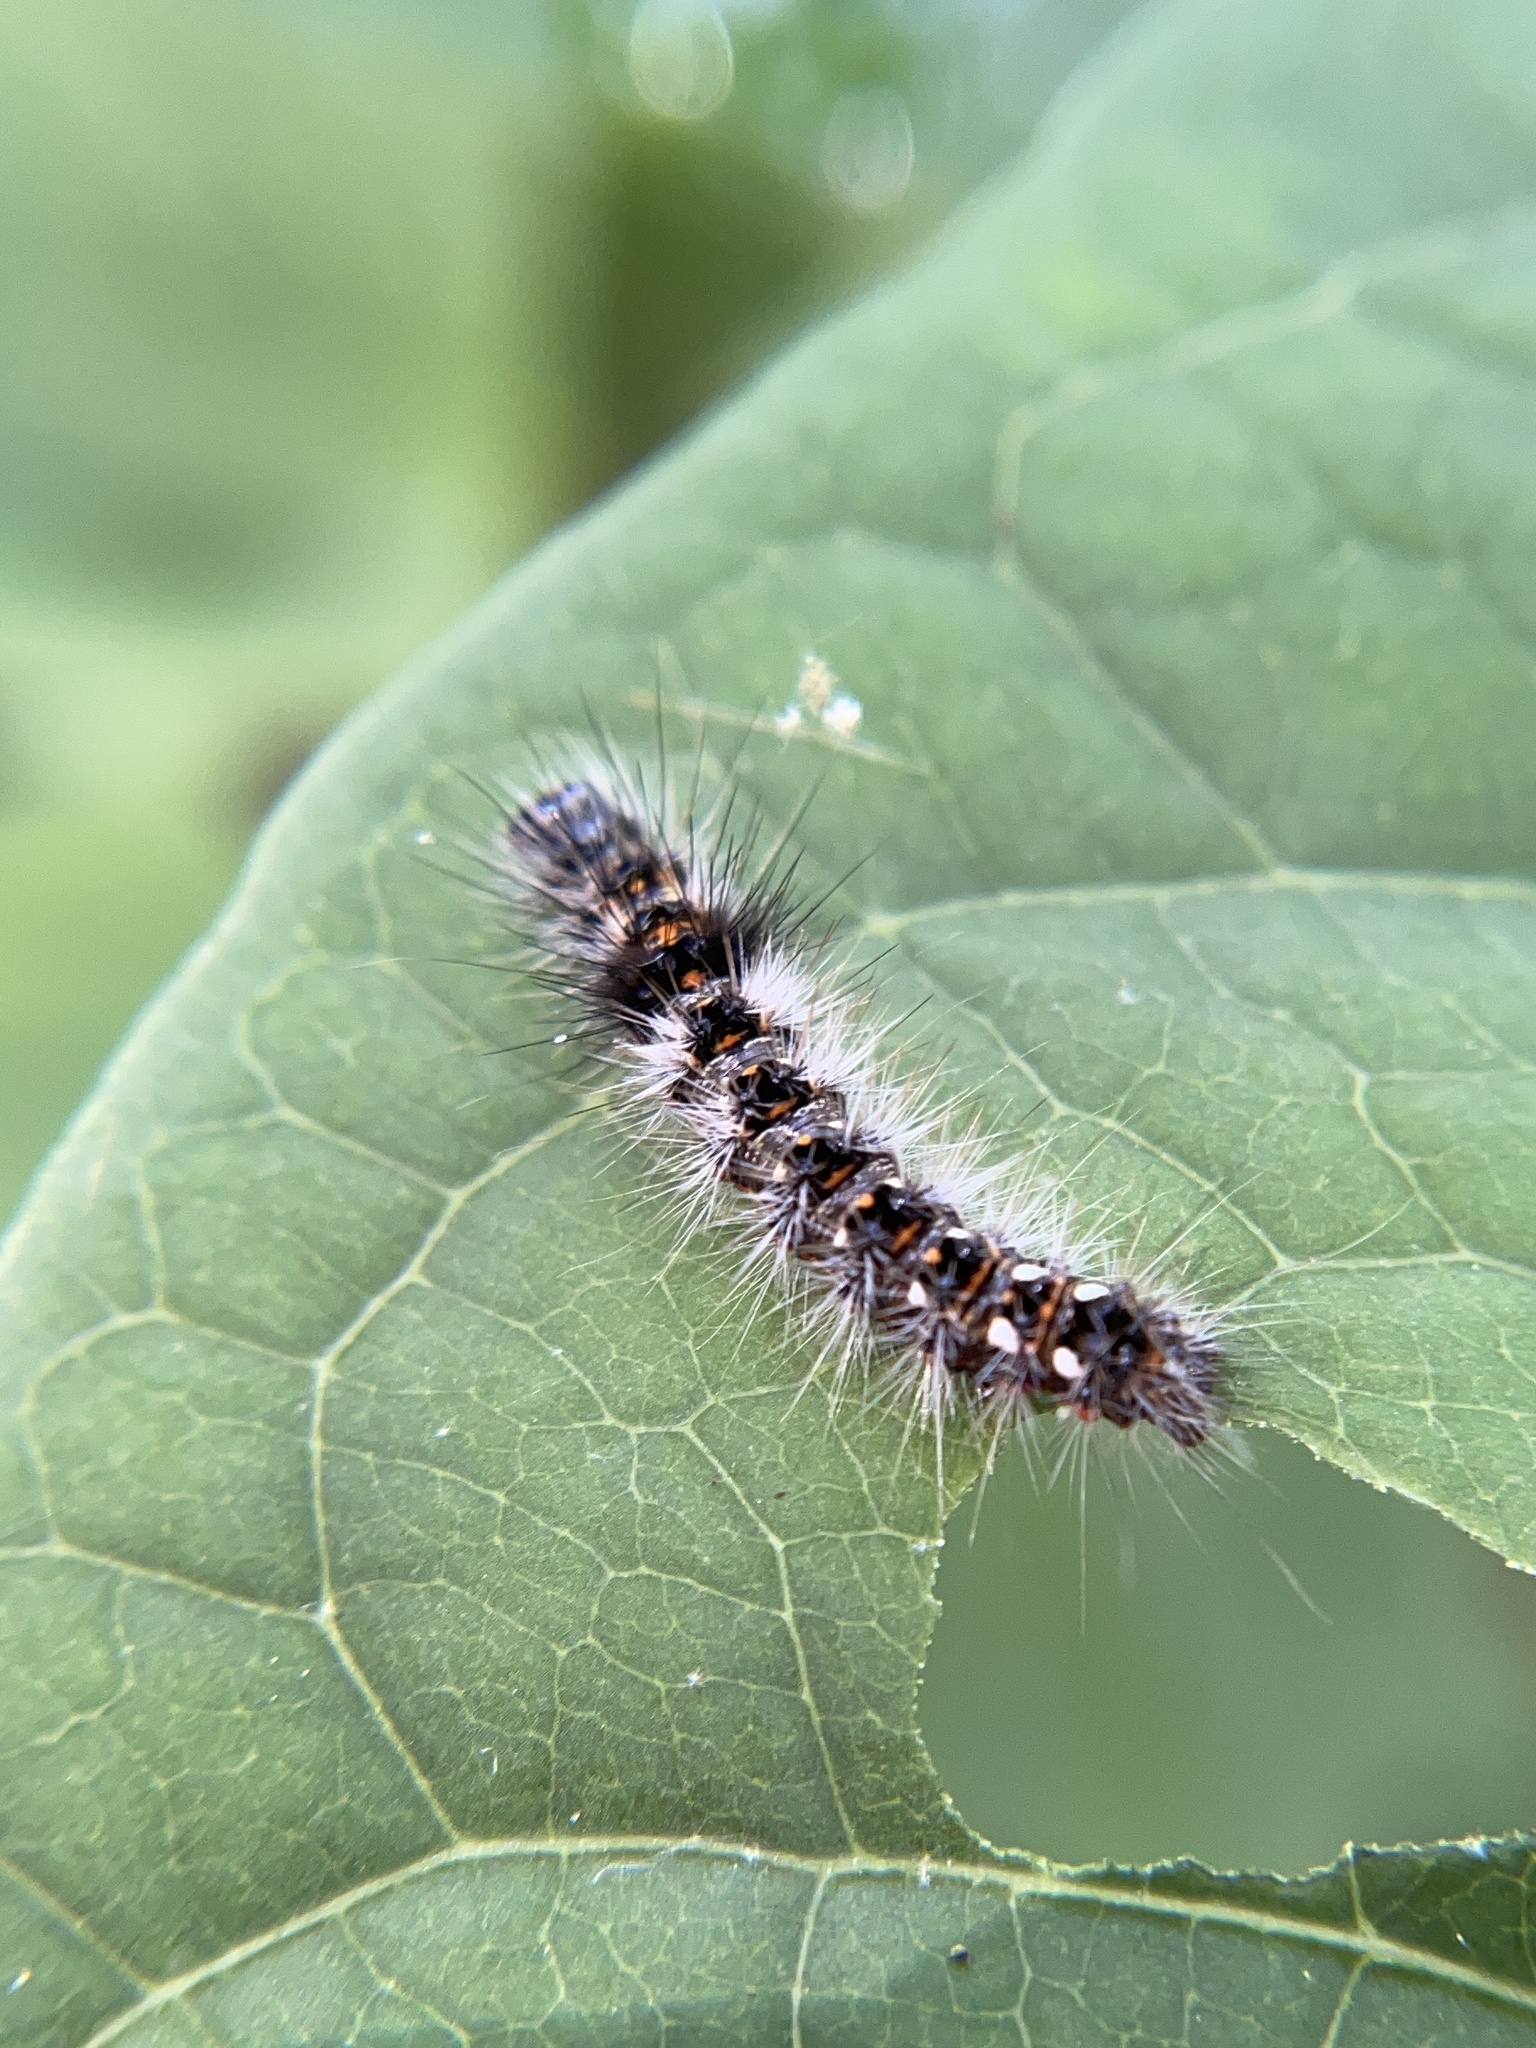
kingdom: Animalia
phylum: Arthropoda
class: Insecta
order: Lepidoptera
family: Noctuidae
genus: Acronicta
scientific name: Acronicta rumicis
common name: Knot grass
